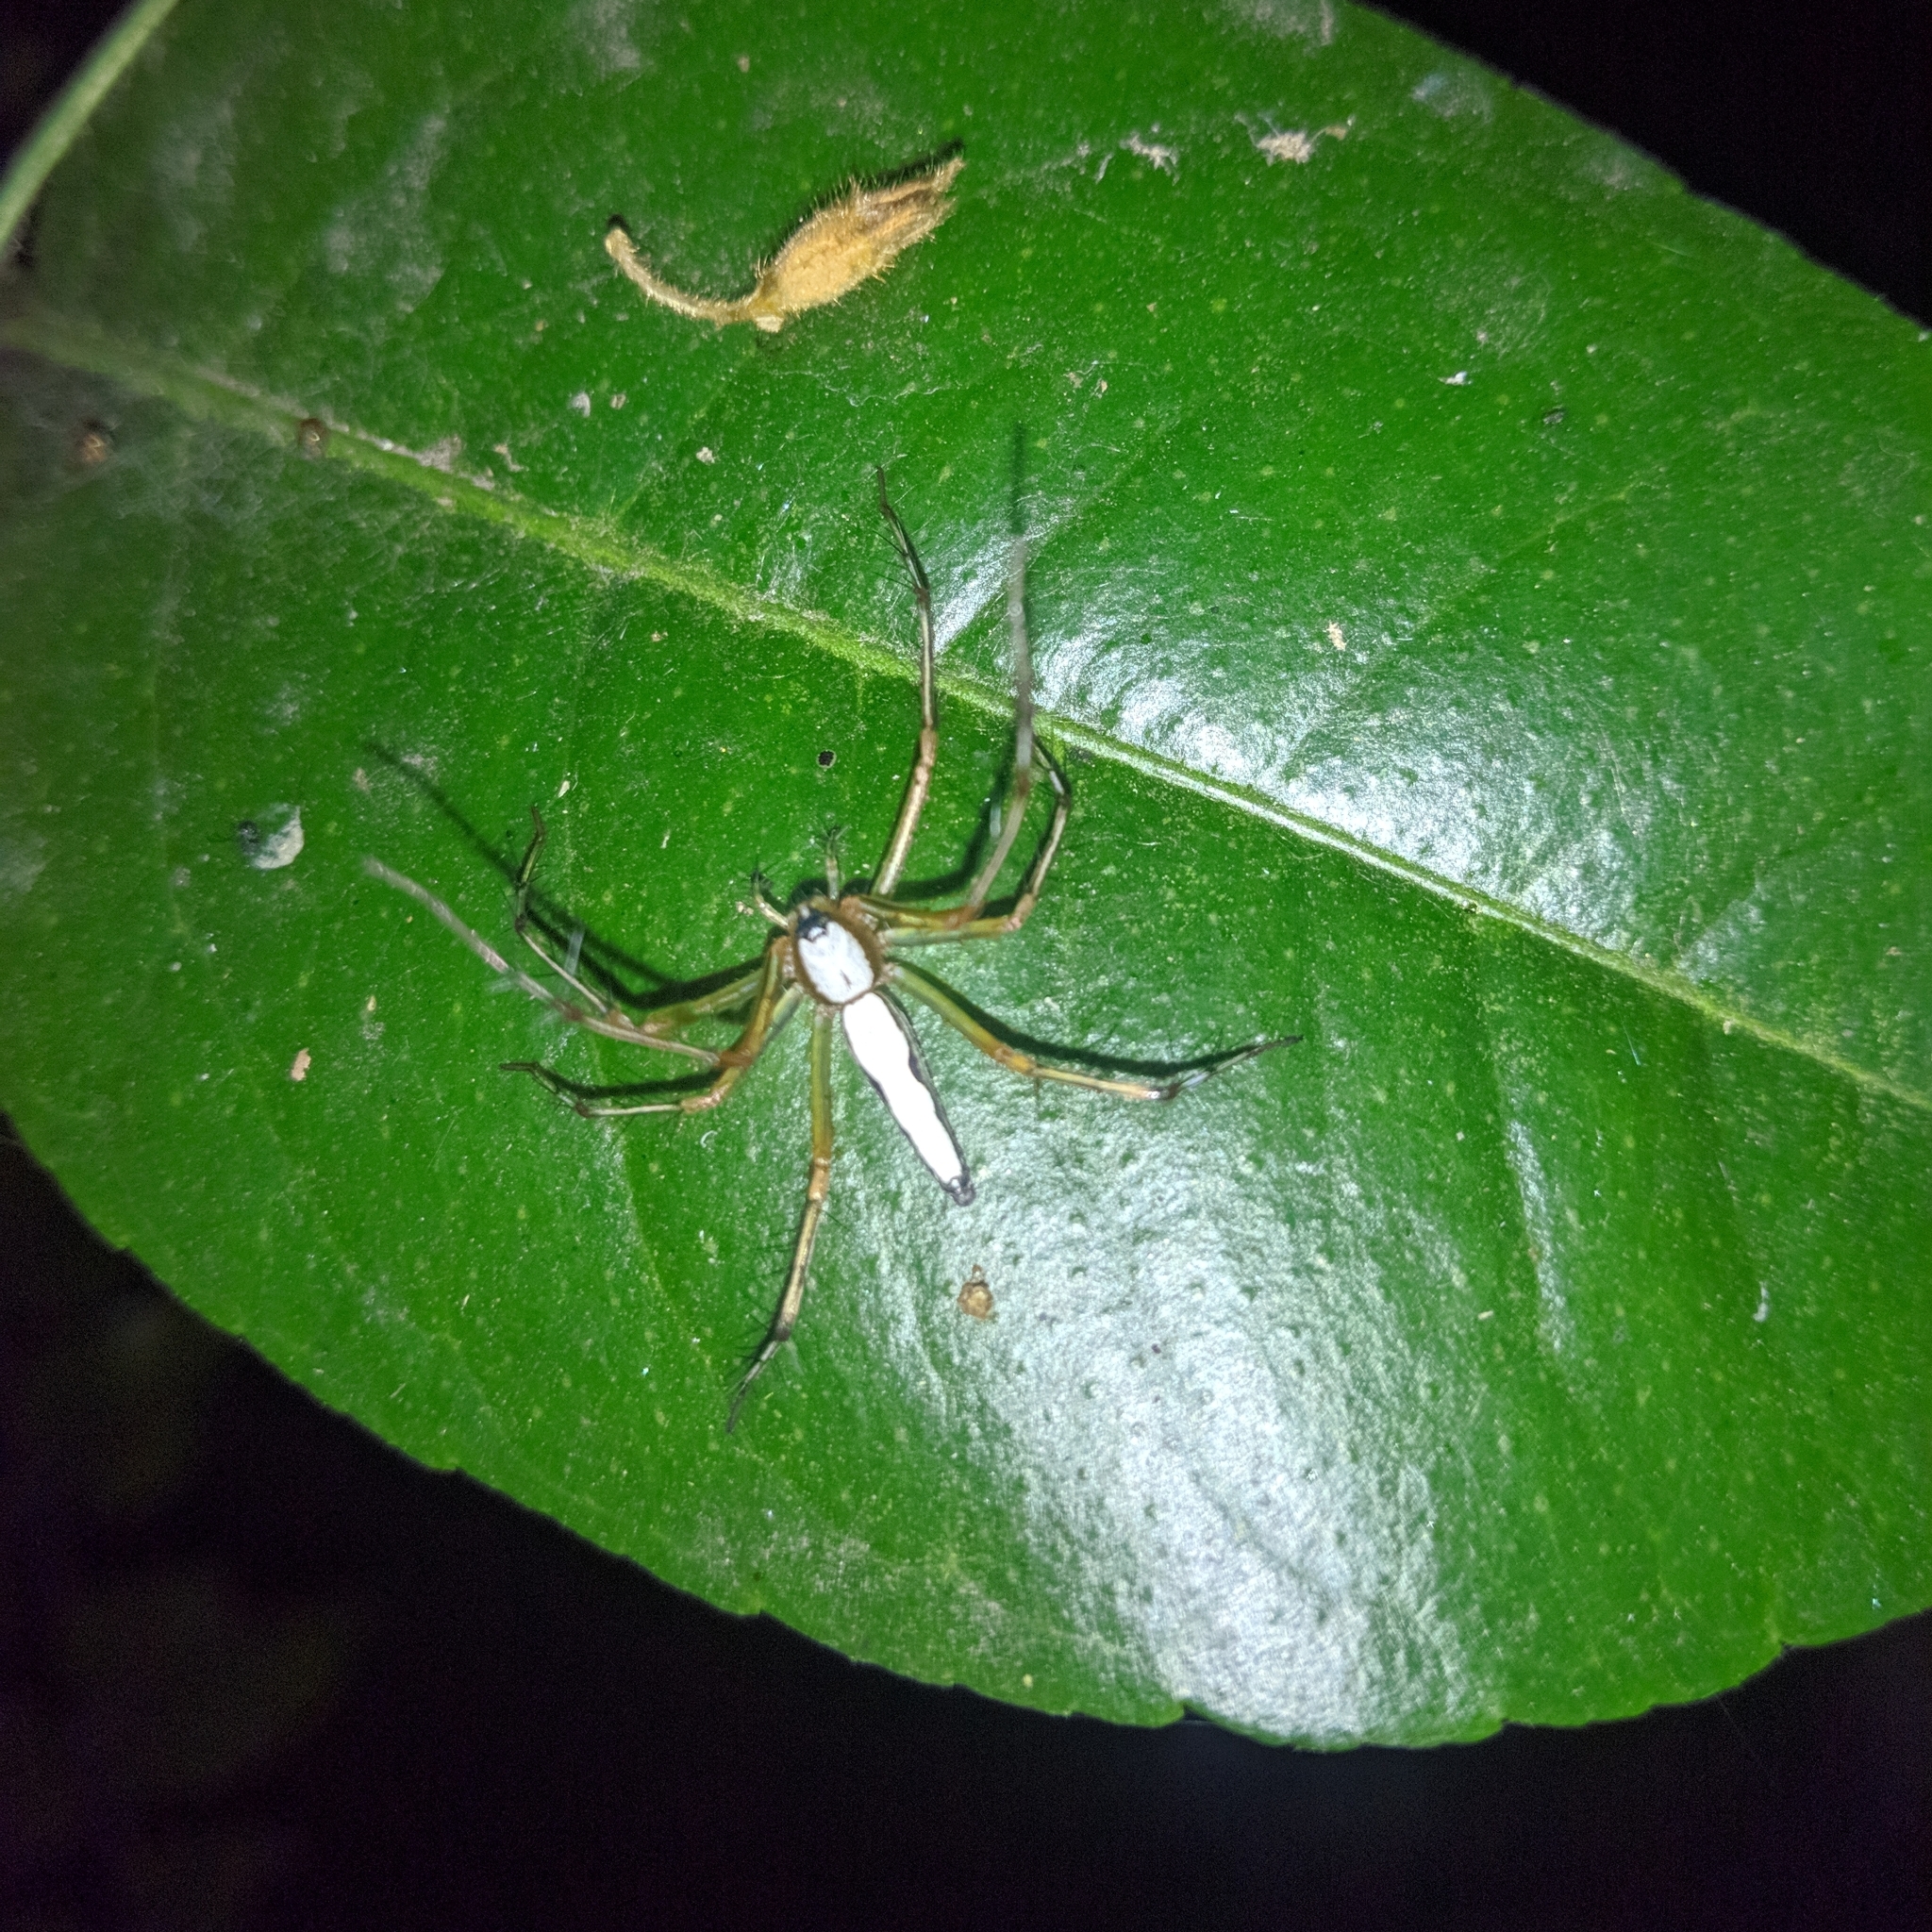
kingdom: Animalia
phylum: Arthropoda
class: Arachnida
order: Araneae
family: Oxyopidae
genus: Oxyopes
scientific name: Oxyopes shweta
